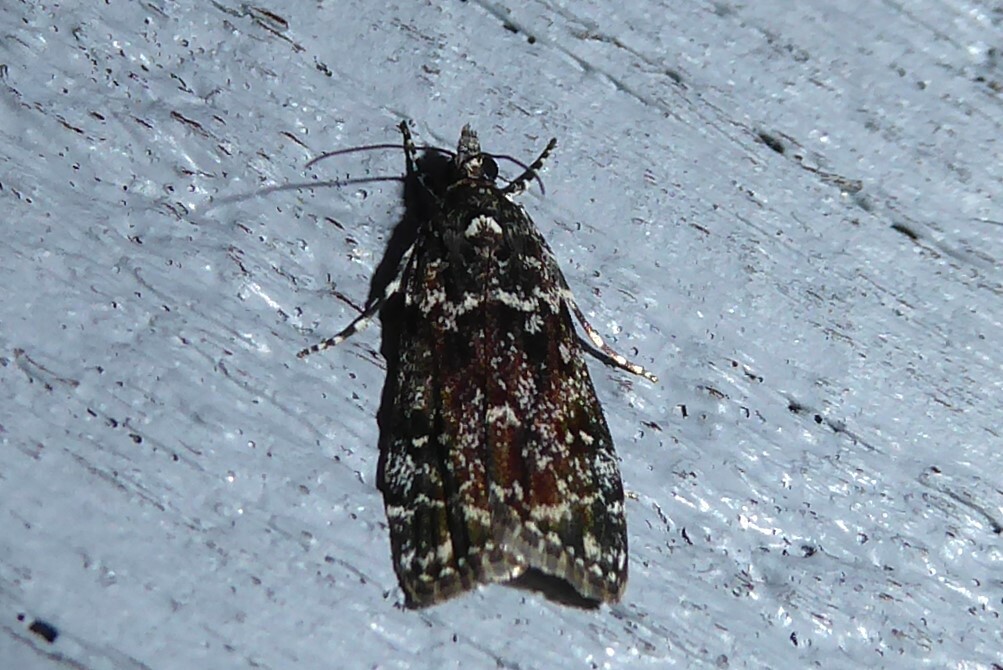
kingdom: Animalia
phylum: Arthropoda
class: Insecta
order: Lepidoptera
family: Crambidae
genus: Eudonia
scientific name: Eudonia philerga
